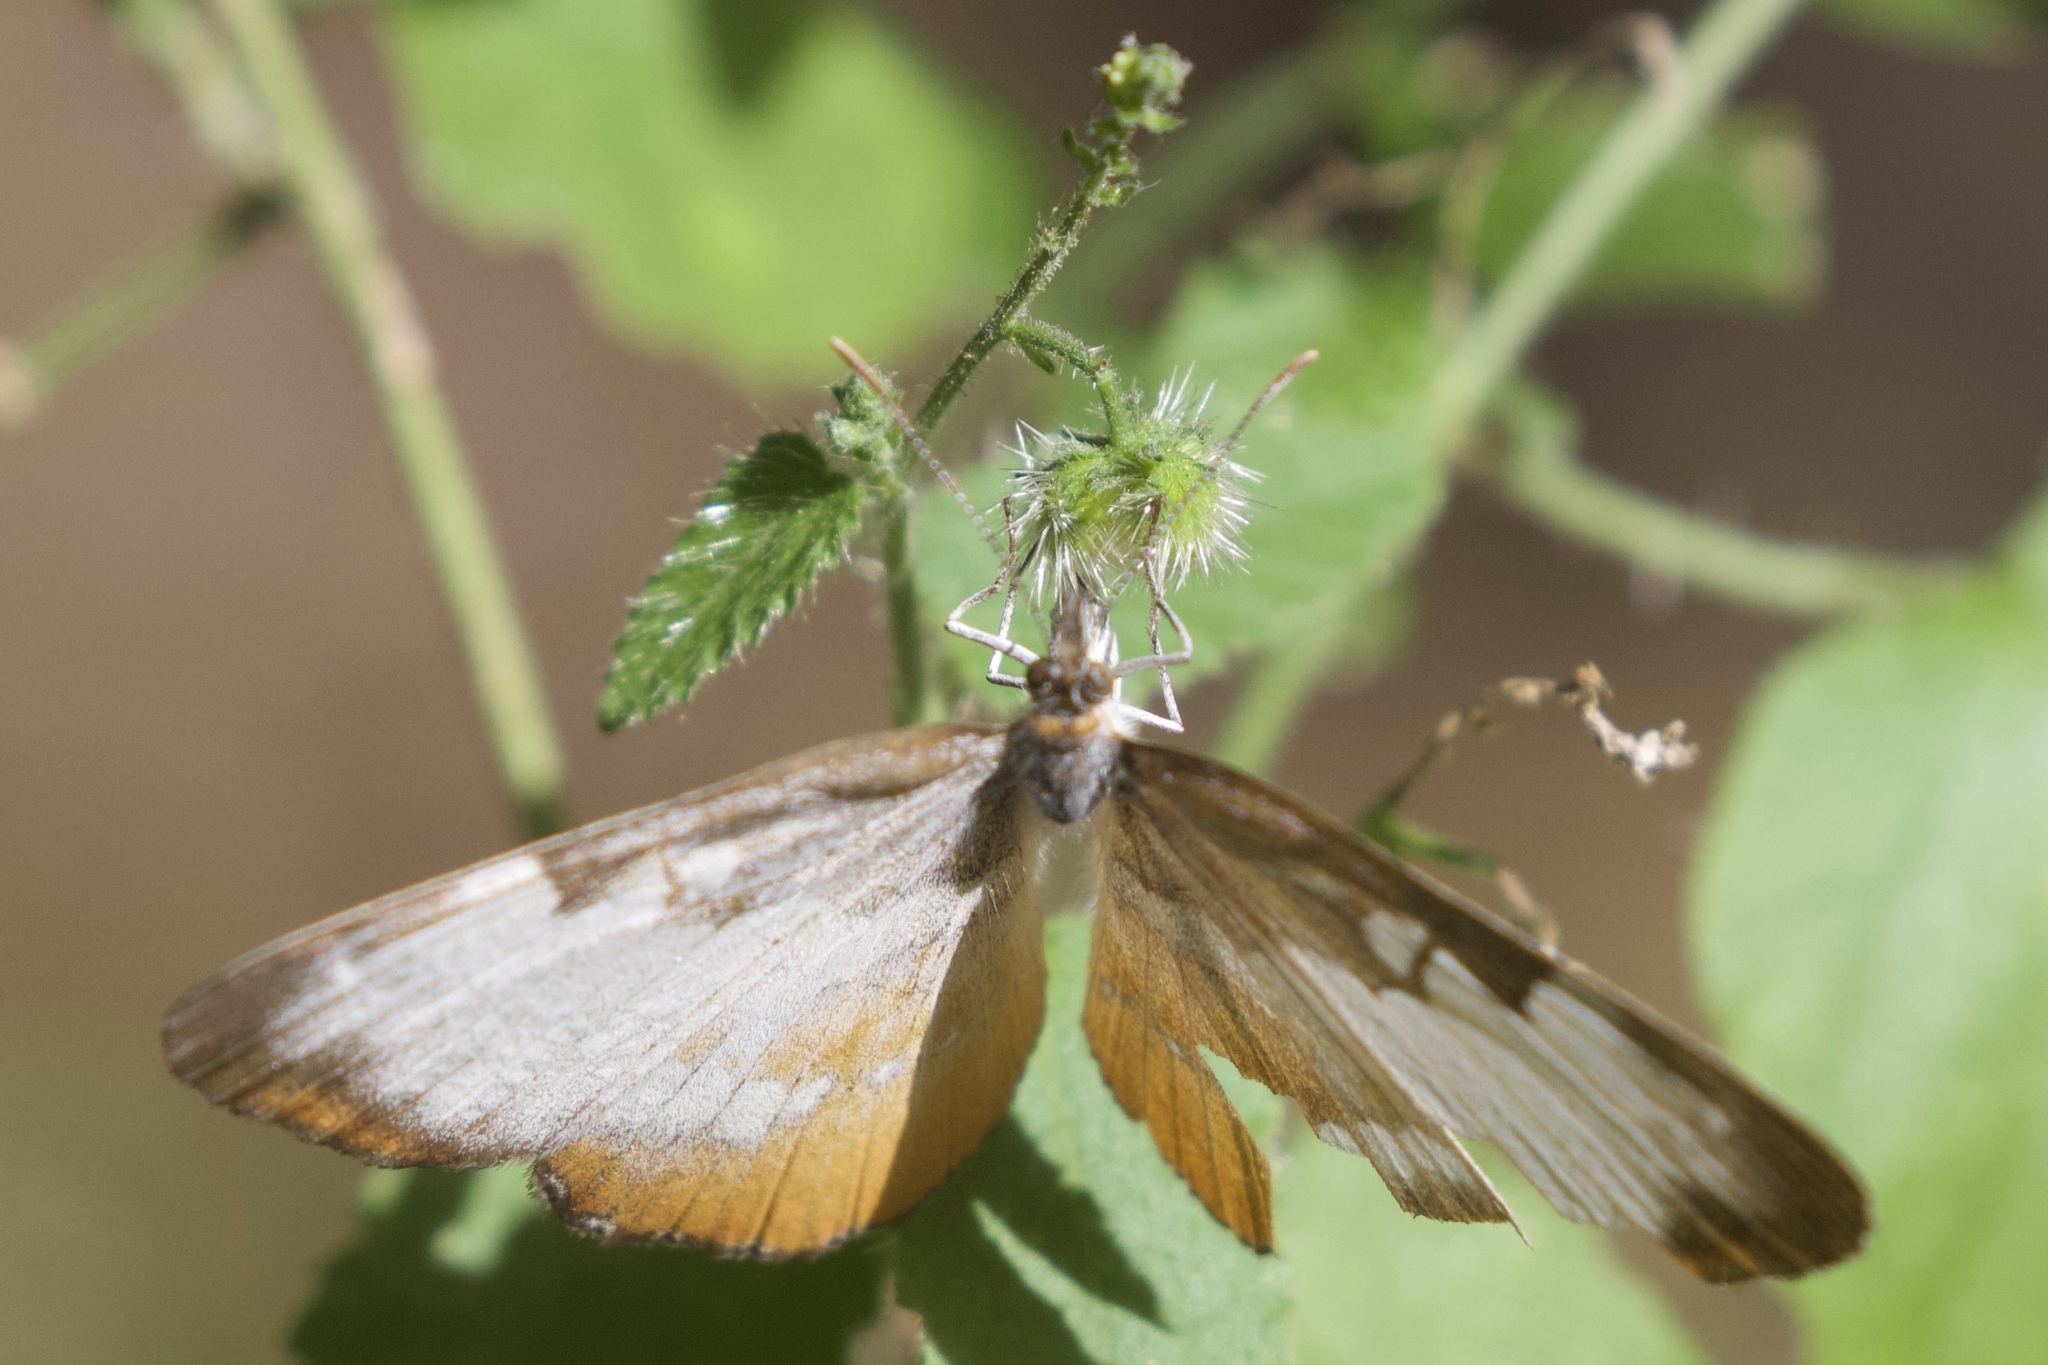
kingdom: Animalia
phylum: Arthropoda
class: Insecta
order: Lepidoptera
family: Nymphalidae
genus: Mestra
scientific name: Mestra amymone
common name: Common mestra
